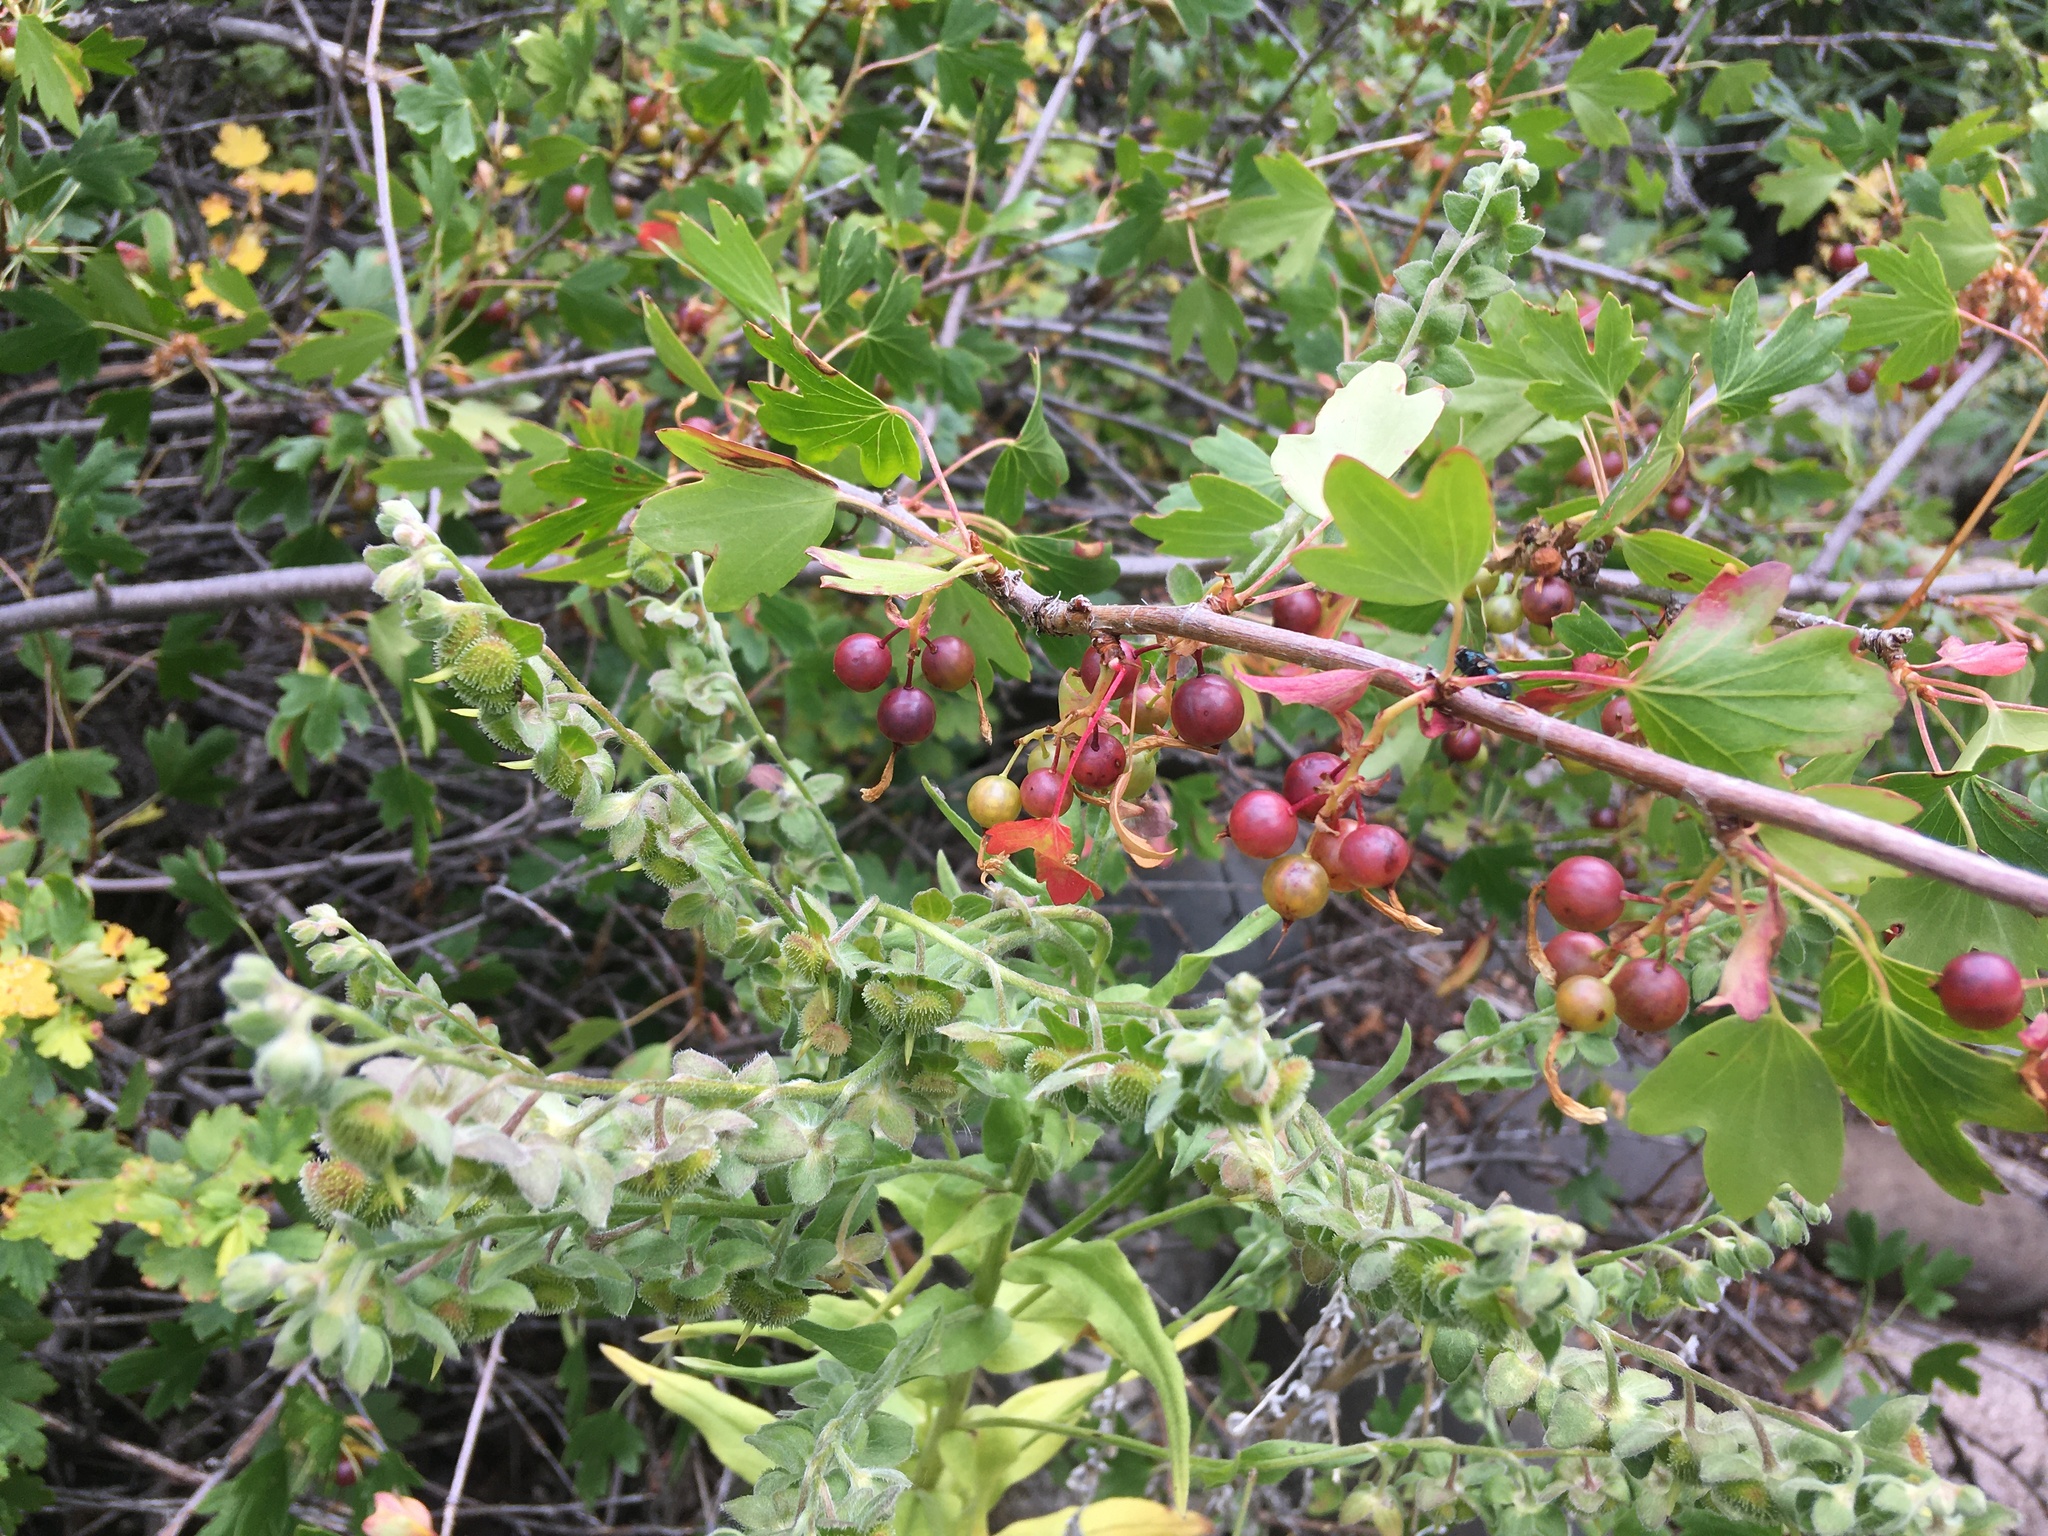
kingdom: Plantae
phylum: Tracheophyta
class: Magnoliopsida
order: Saxifragales
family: Grossulariaceae
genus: Ribes
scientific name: Ribes aureum
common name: Golden currant
